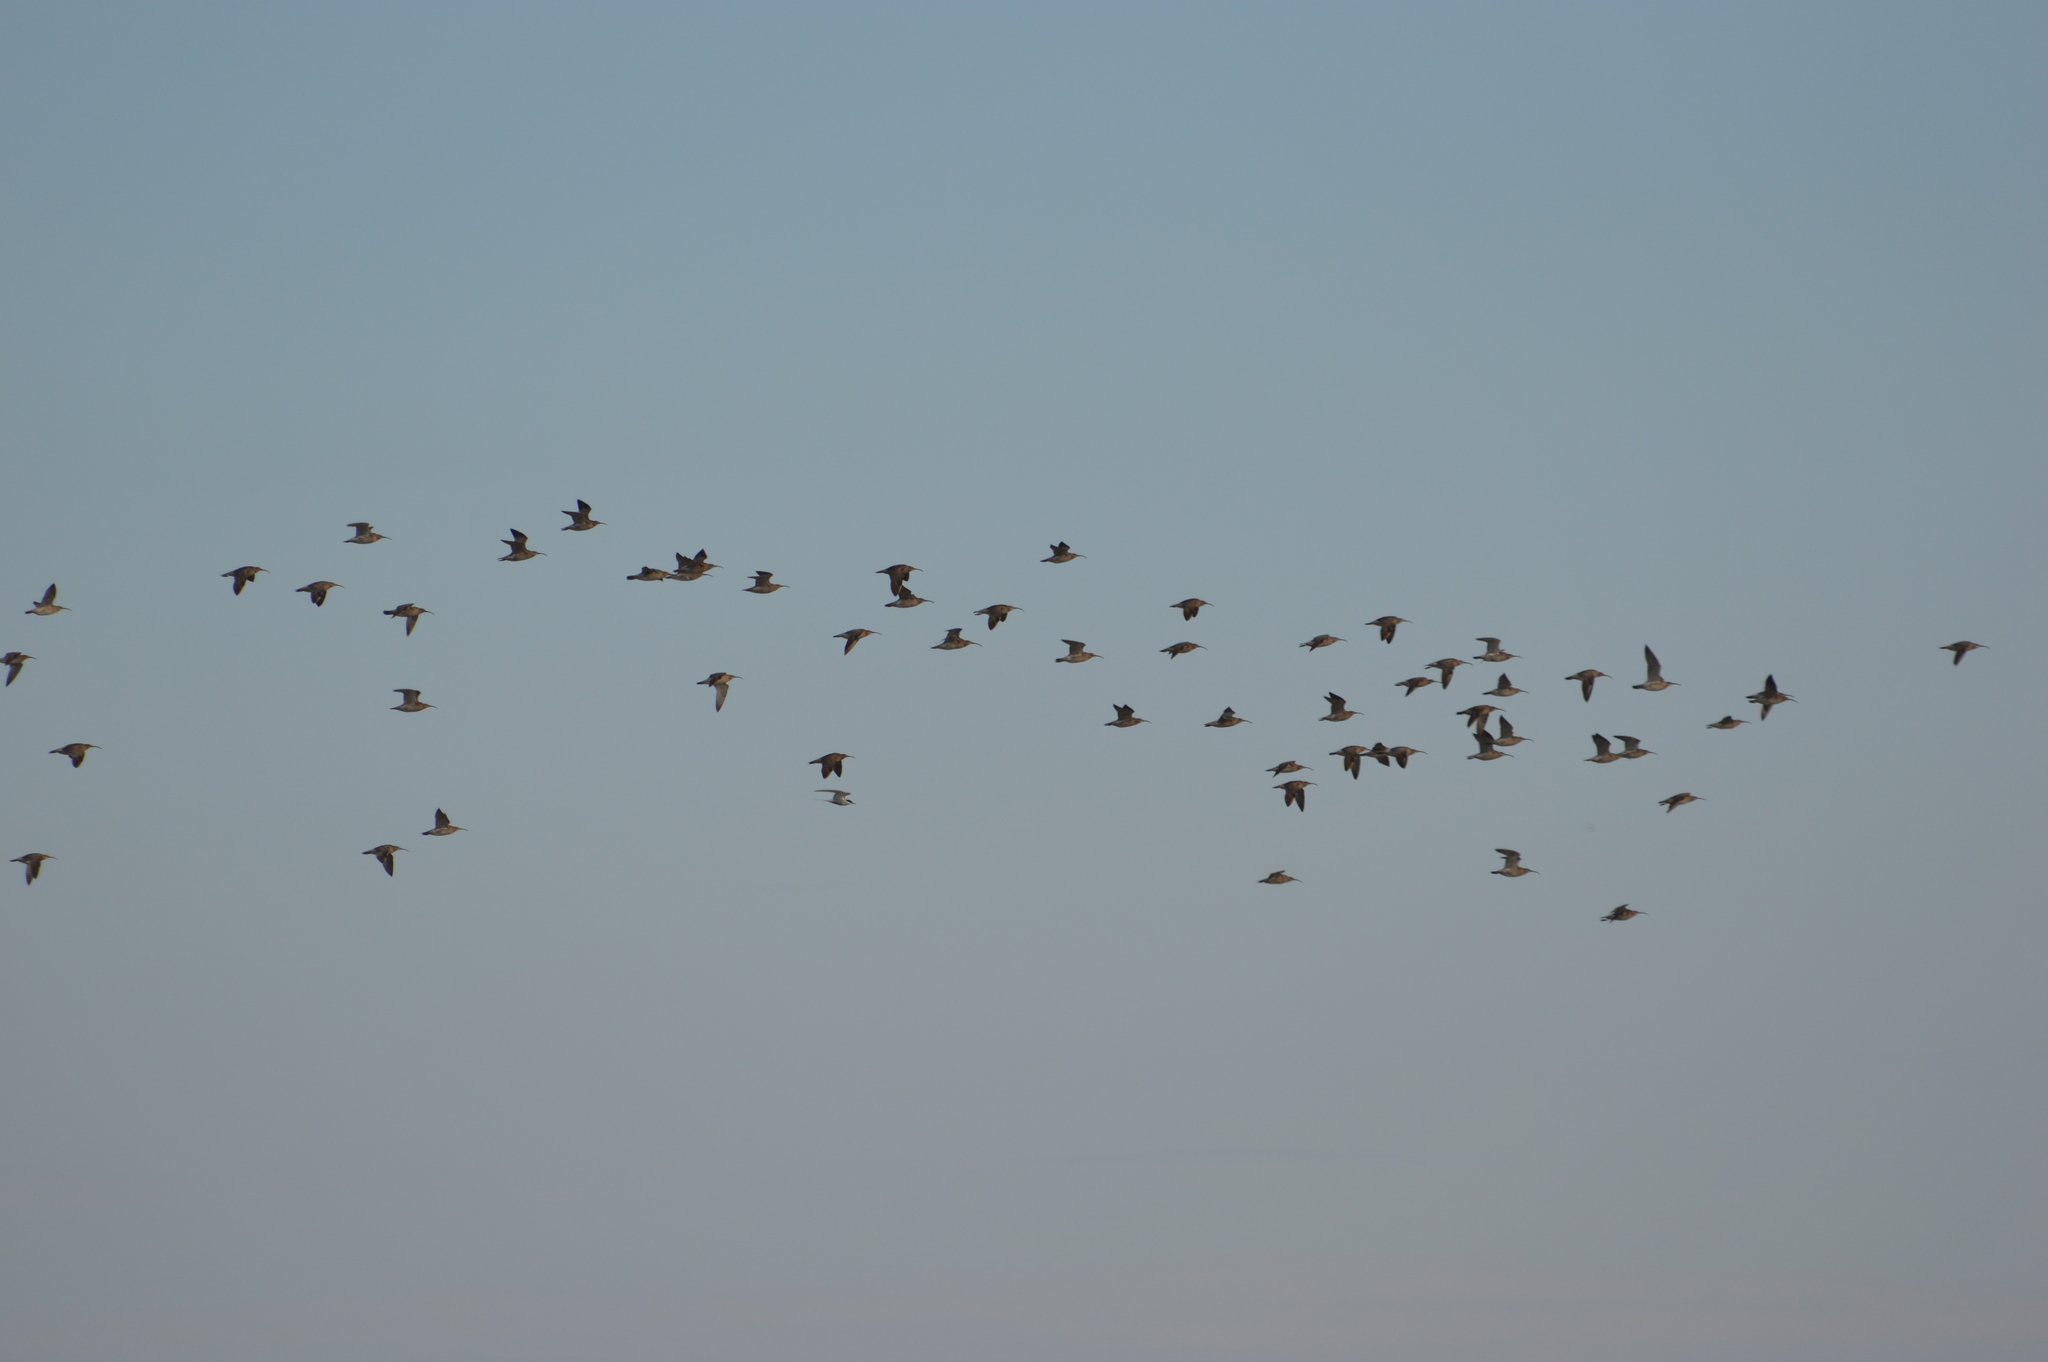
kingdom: Animalia
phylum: Chordata
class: Aves
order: Charadriiformes
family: Scolopacidae
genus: Numenius
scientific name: Numenius phaeopus
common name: Whimbrel
